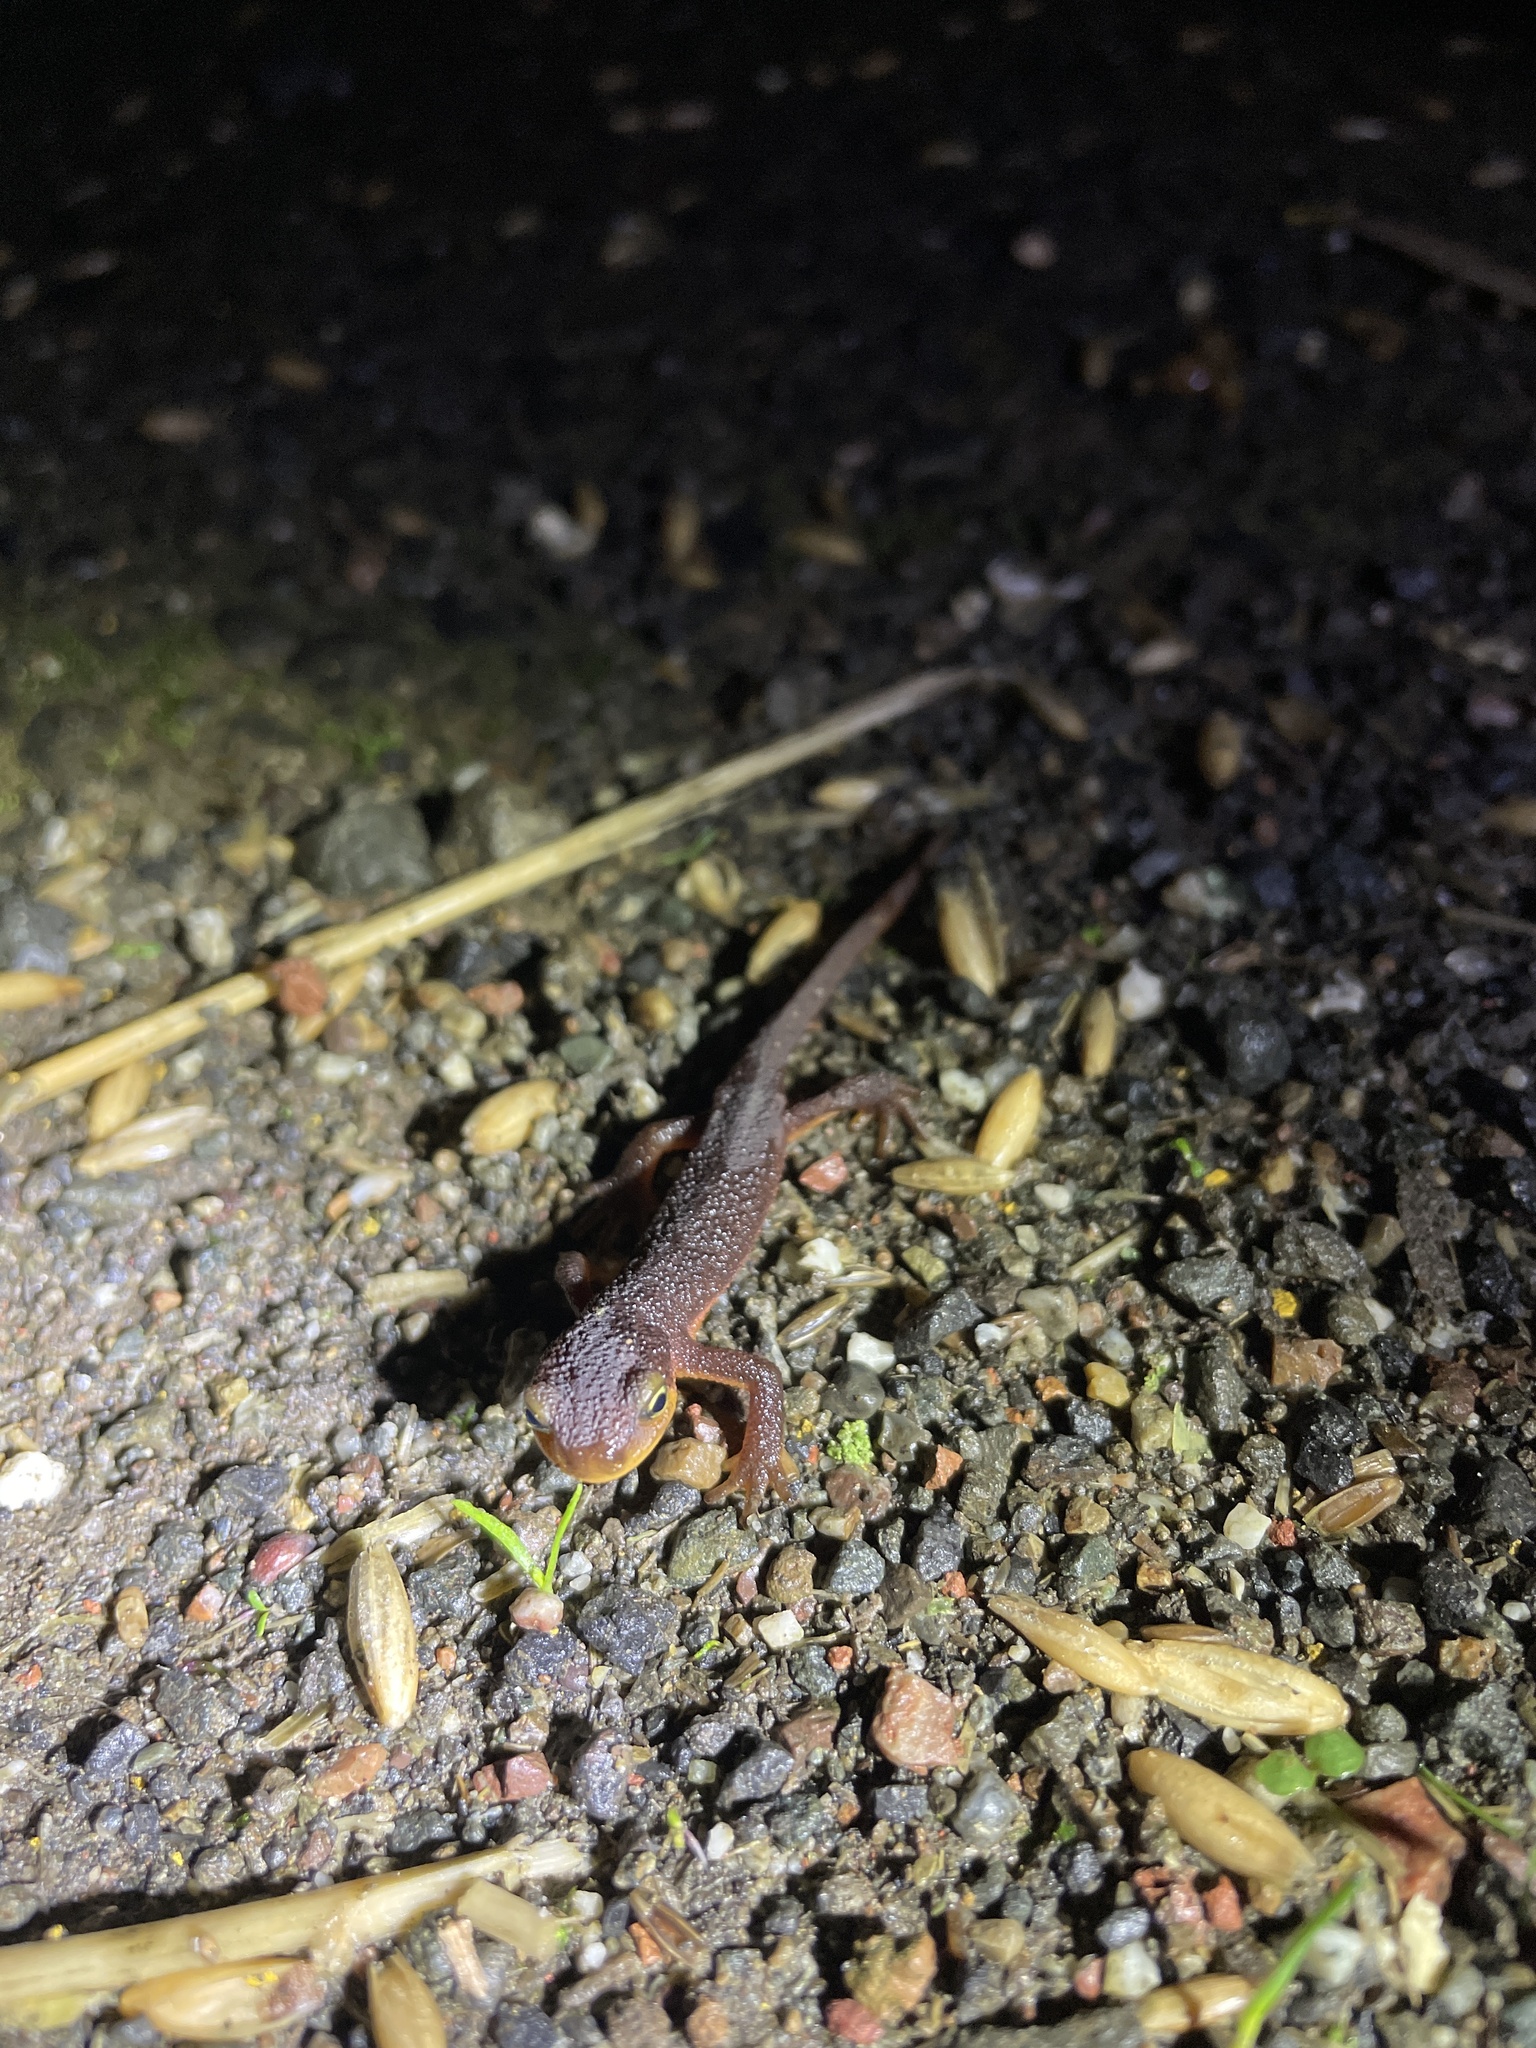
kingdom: Animalia
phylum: Chordata
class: Amphibia
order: Caudata
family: Salamandridae
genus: Taricha
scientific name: Taricha torosa
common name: California newt
